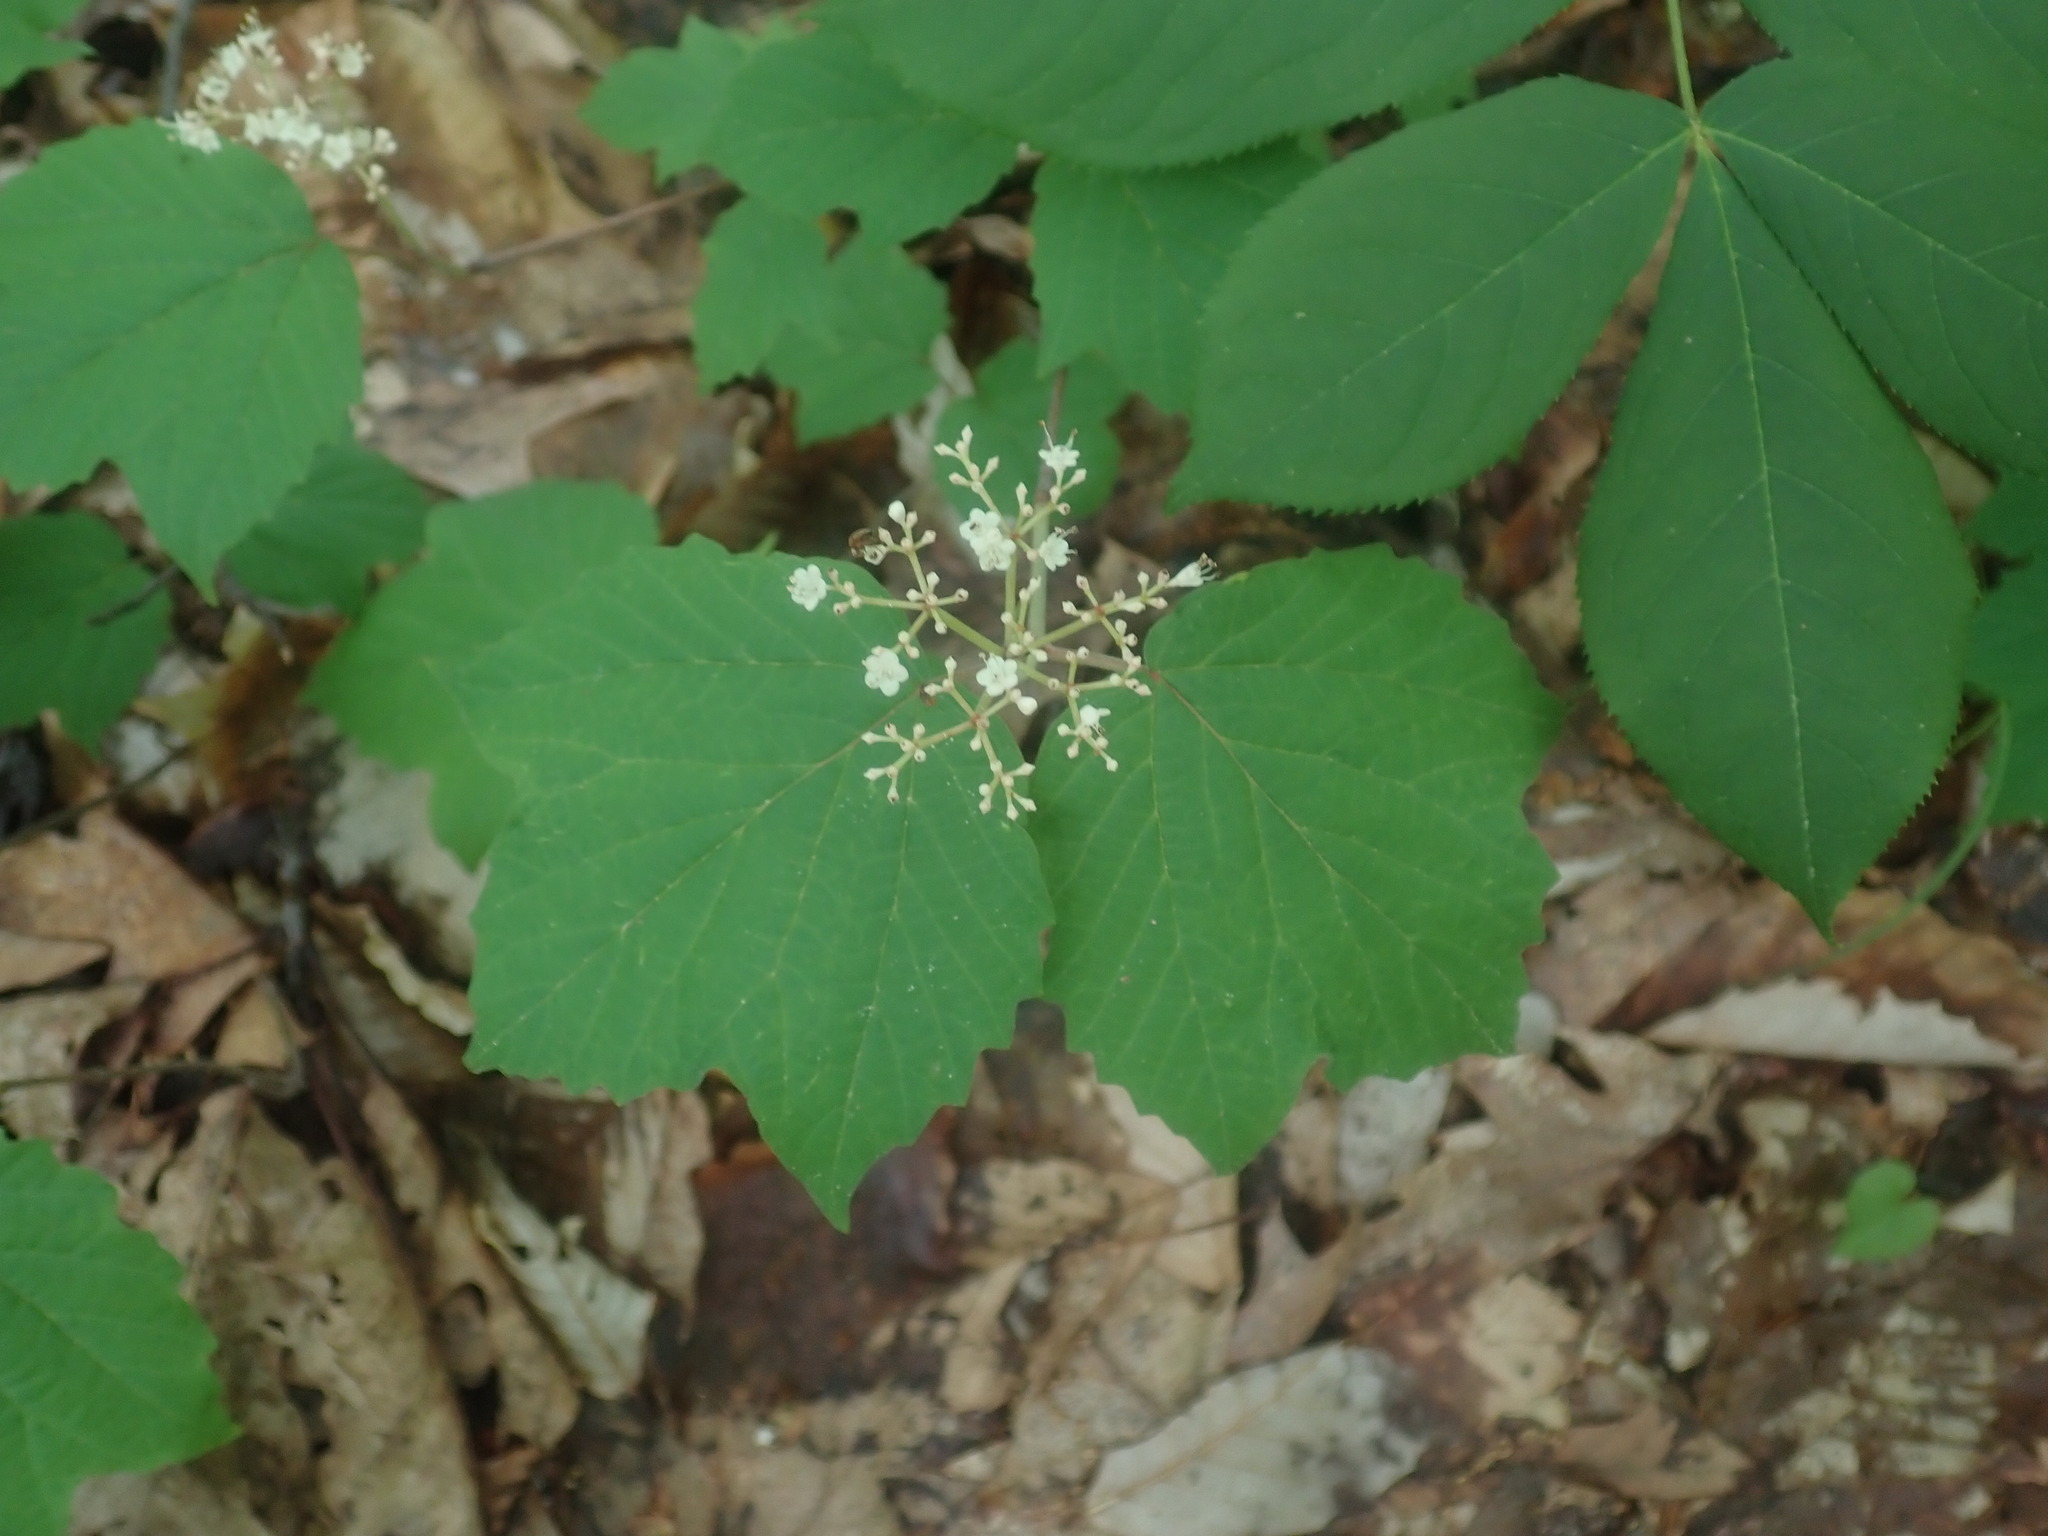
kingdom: Plantae
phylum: Tracheophyta
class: Magnoliopsida
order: Dipsacales
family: Viburnaceae
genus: Viburnum
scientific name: Viburnum acerifolium
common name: Dockmackie
